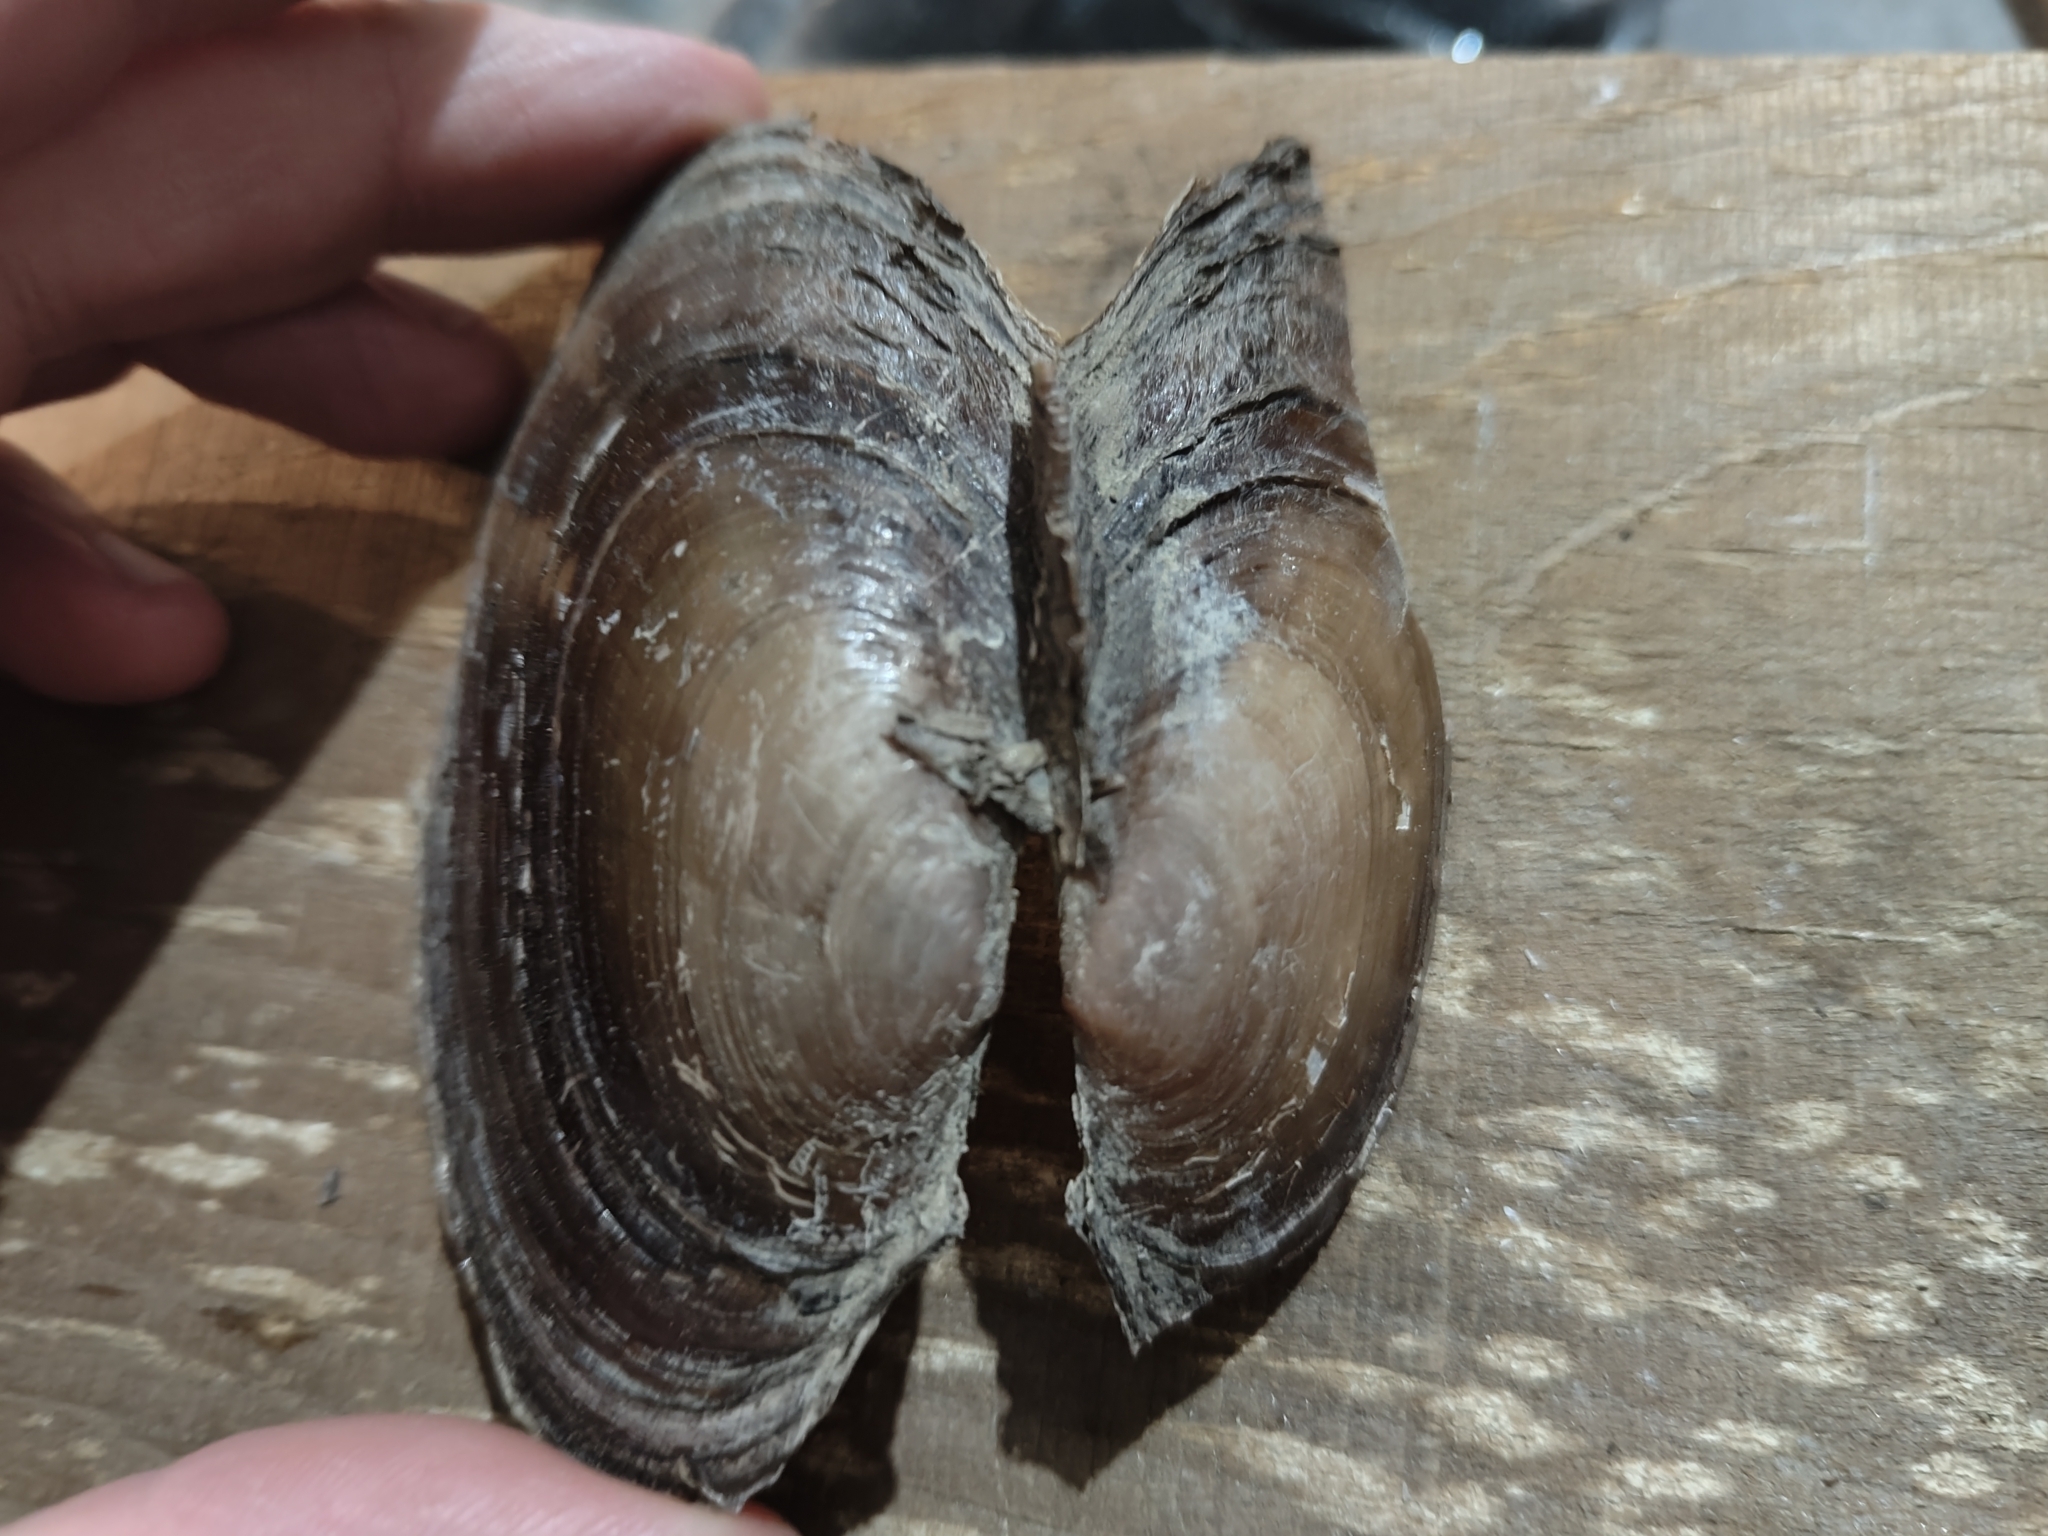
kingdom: Animalia
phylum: Mollusca
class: Bivalvia
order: Unionida
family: Unionidae
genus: Potamilus
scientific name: Potamilus ohiensis
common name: Pink papershell
